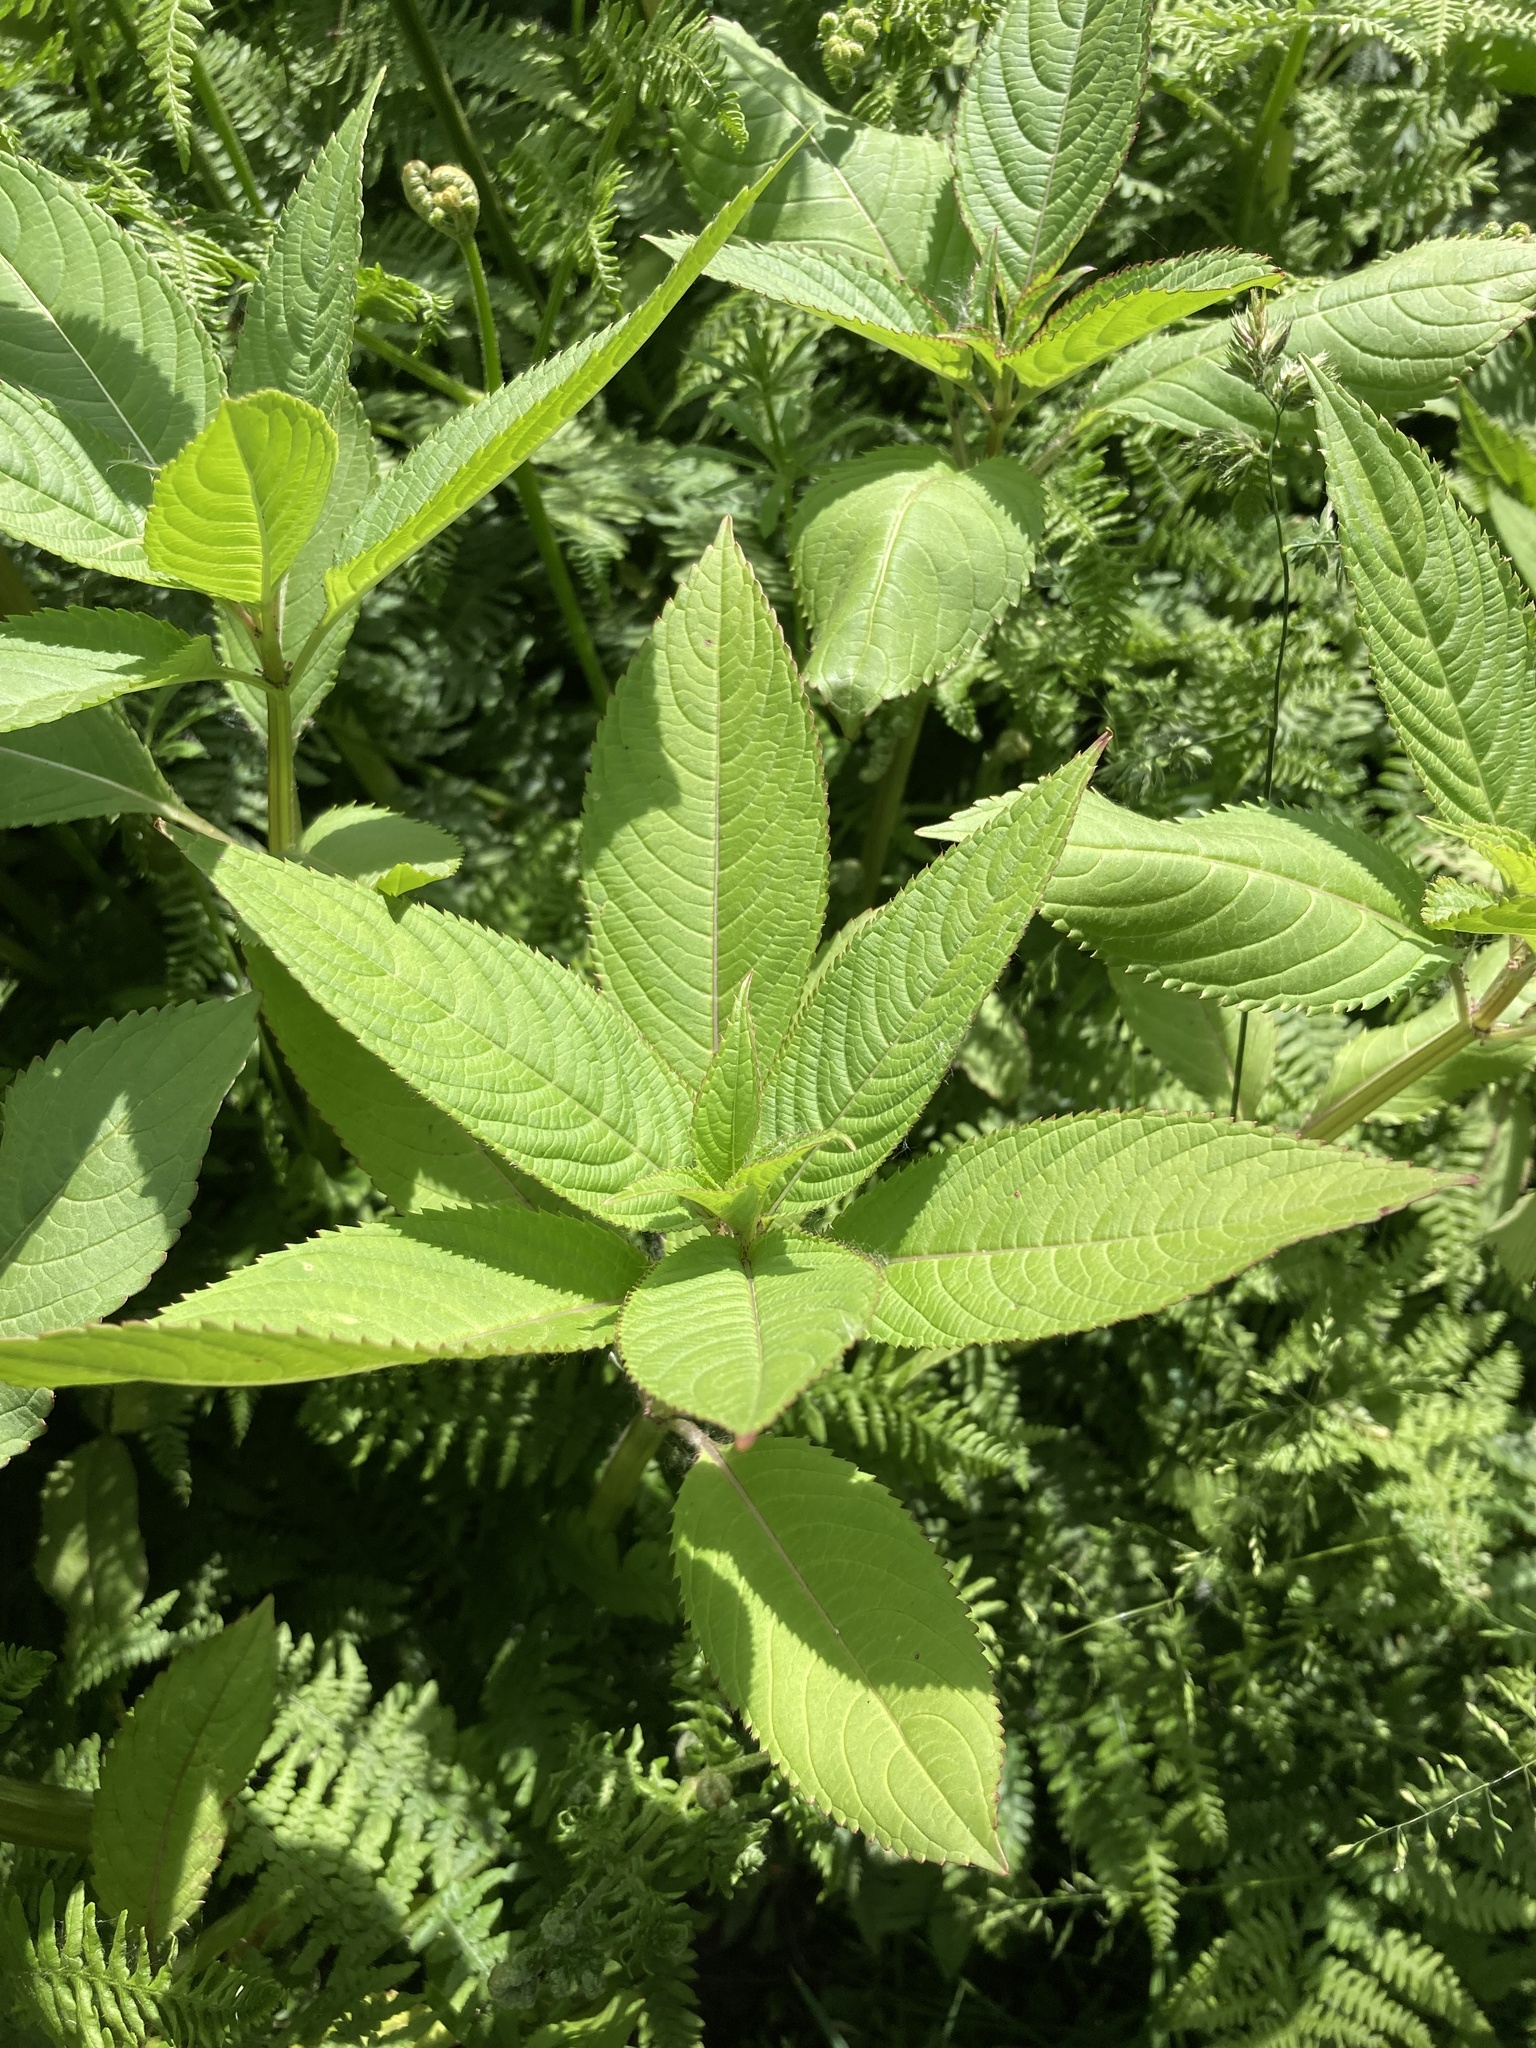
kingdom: Plantae
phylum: Tracheophyta
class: Magnoliopsida
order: Ericales
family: Balsaminaceae
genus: Impatiens
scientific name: Impatiens glandulifera
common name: Himalayan balsam
